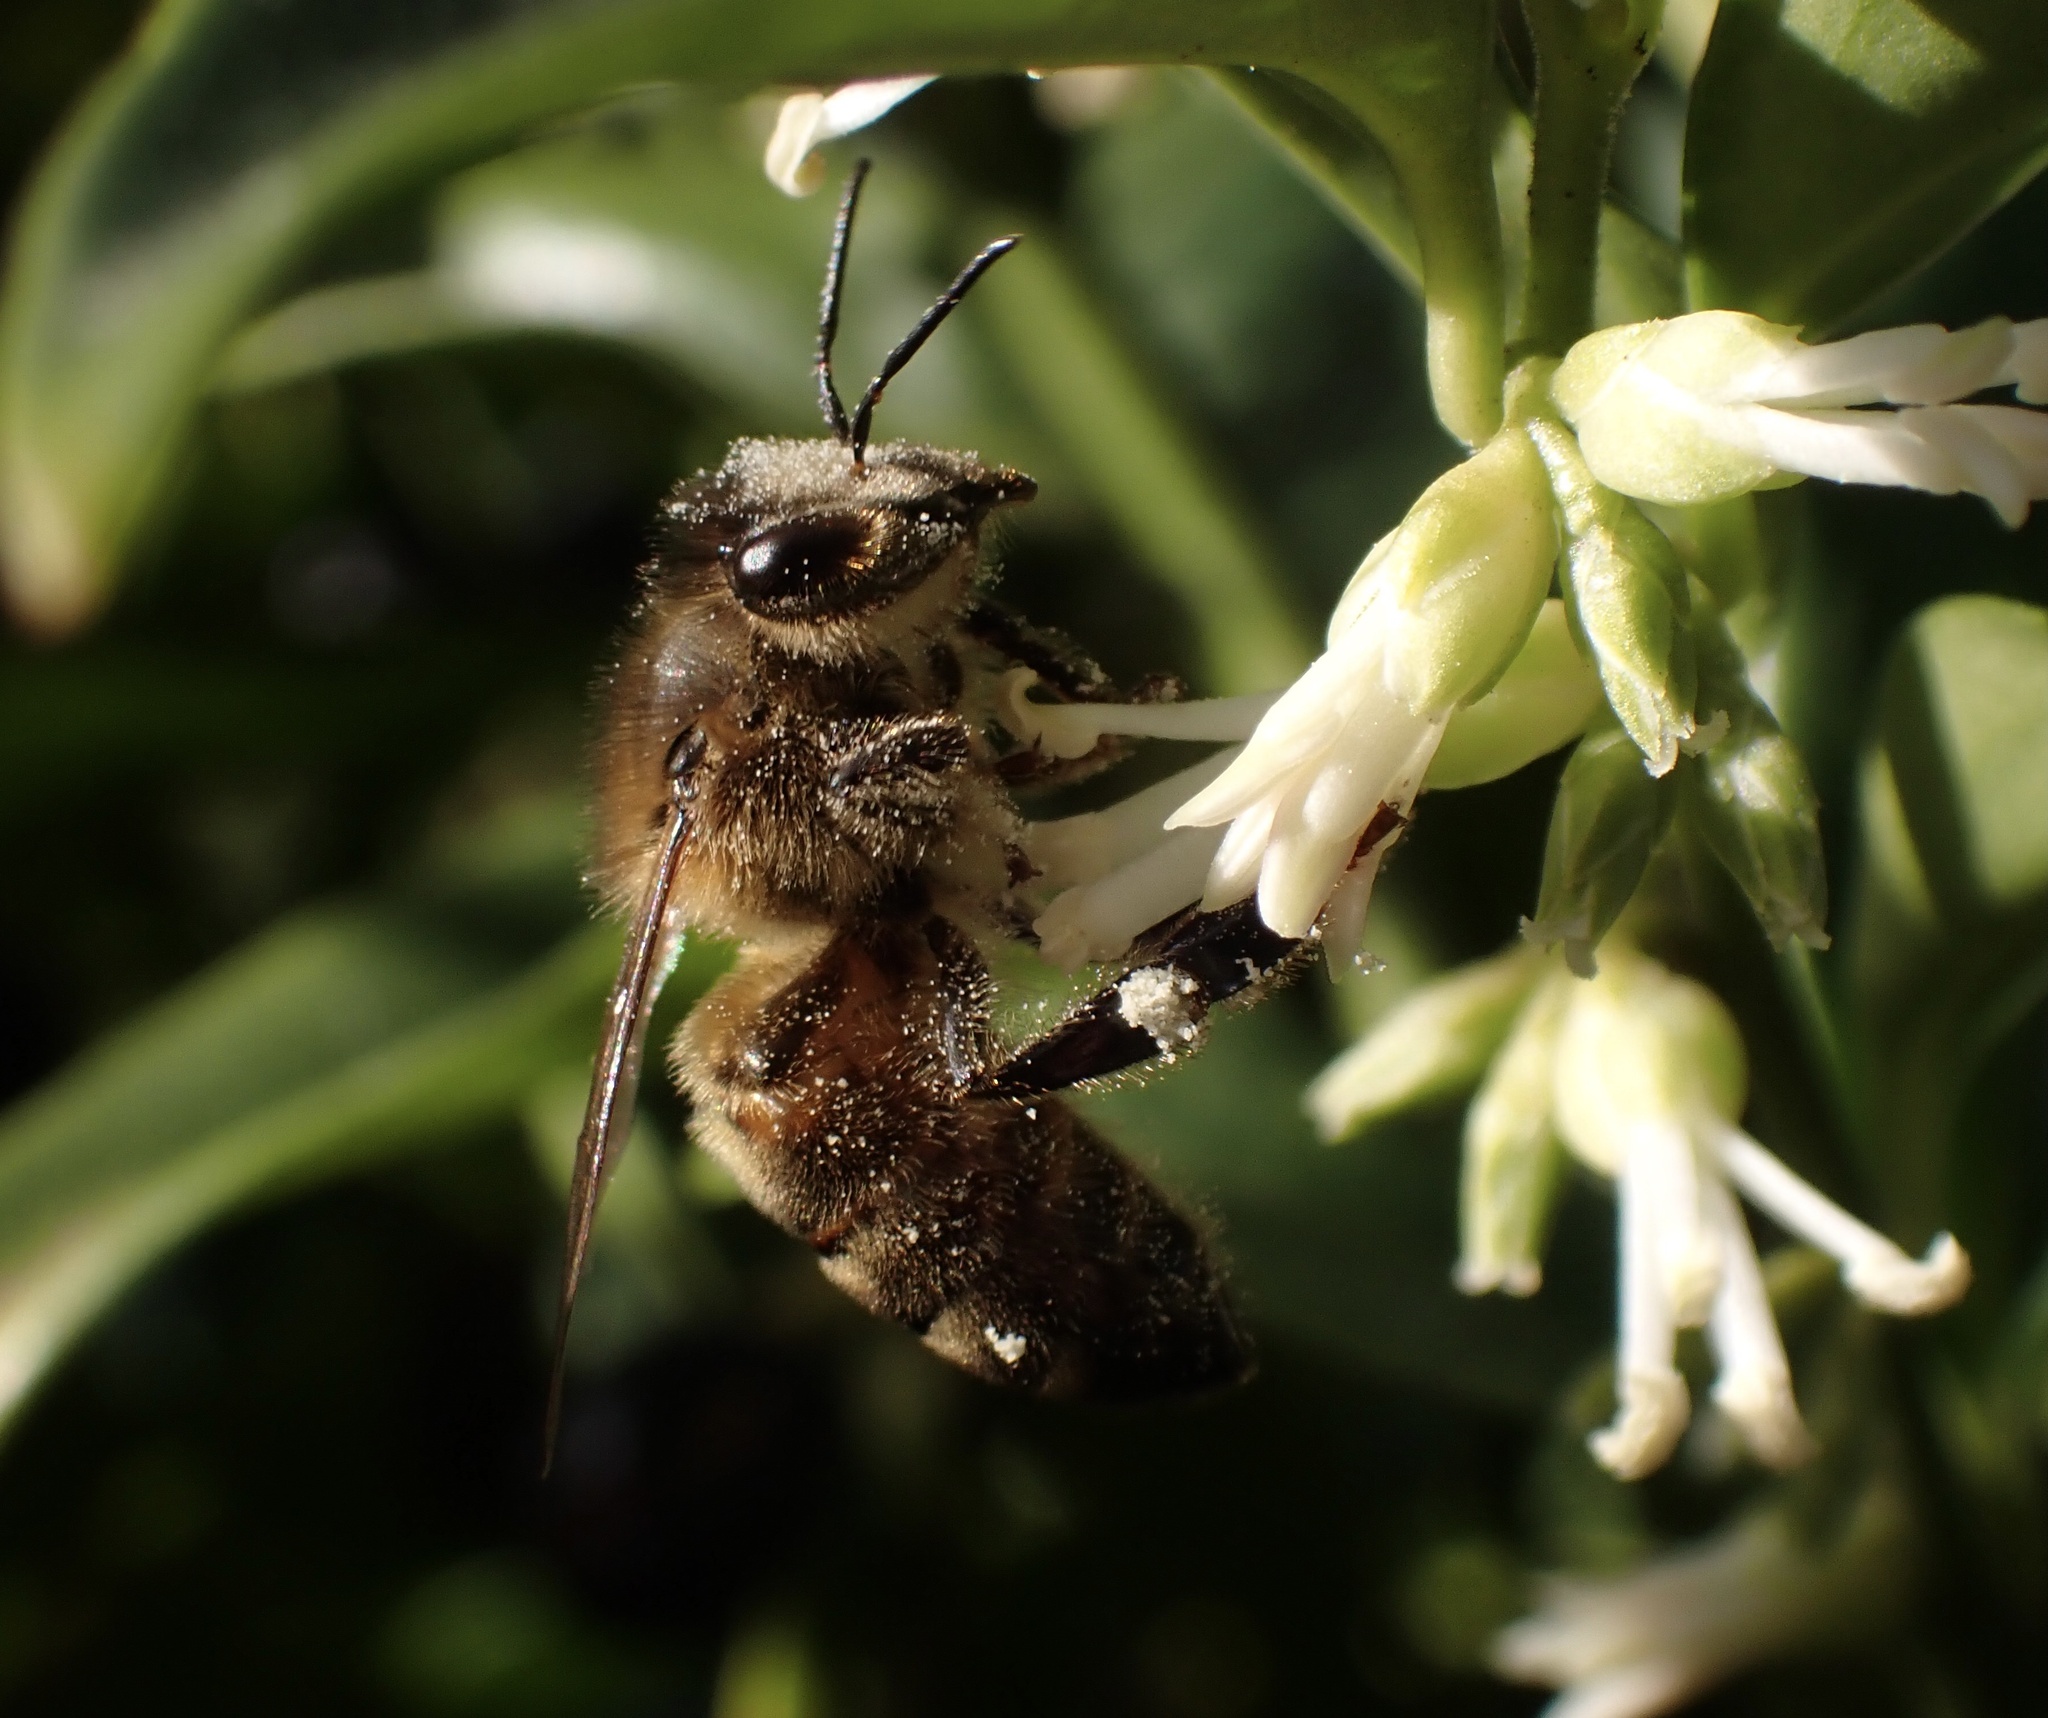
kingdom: Animalia
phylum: Arthropoda
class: Insecta
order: Hymenoptera
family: Apidae
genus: Apis
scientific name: Apis mellifera
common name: Honey bee
